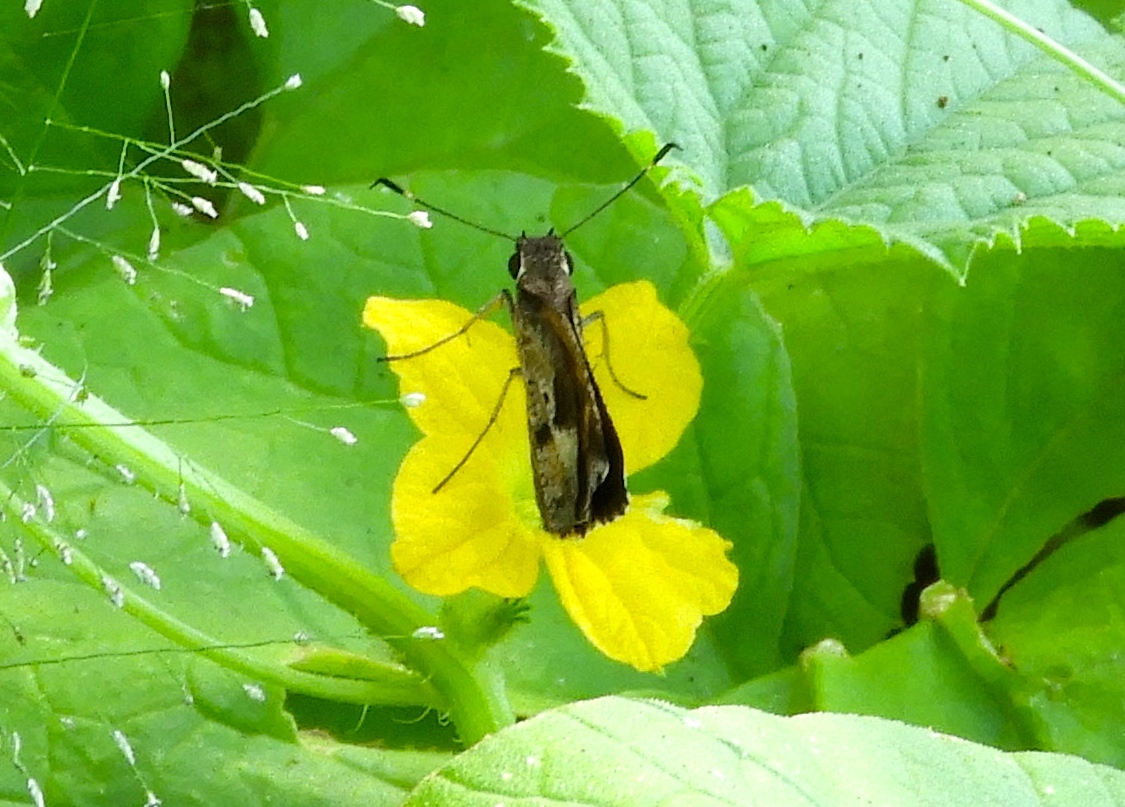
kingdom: Animalia
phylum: Arthropoda
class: Insecta
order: Lepidoptera
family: Hesperiidae
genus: Synapte
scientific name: Synapte syraces
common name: Faceted skipper
